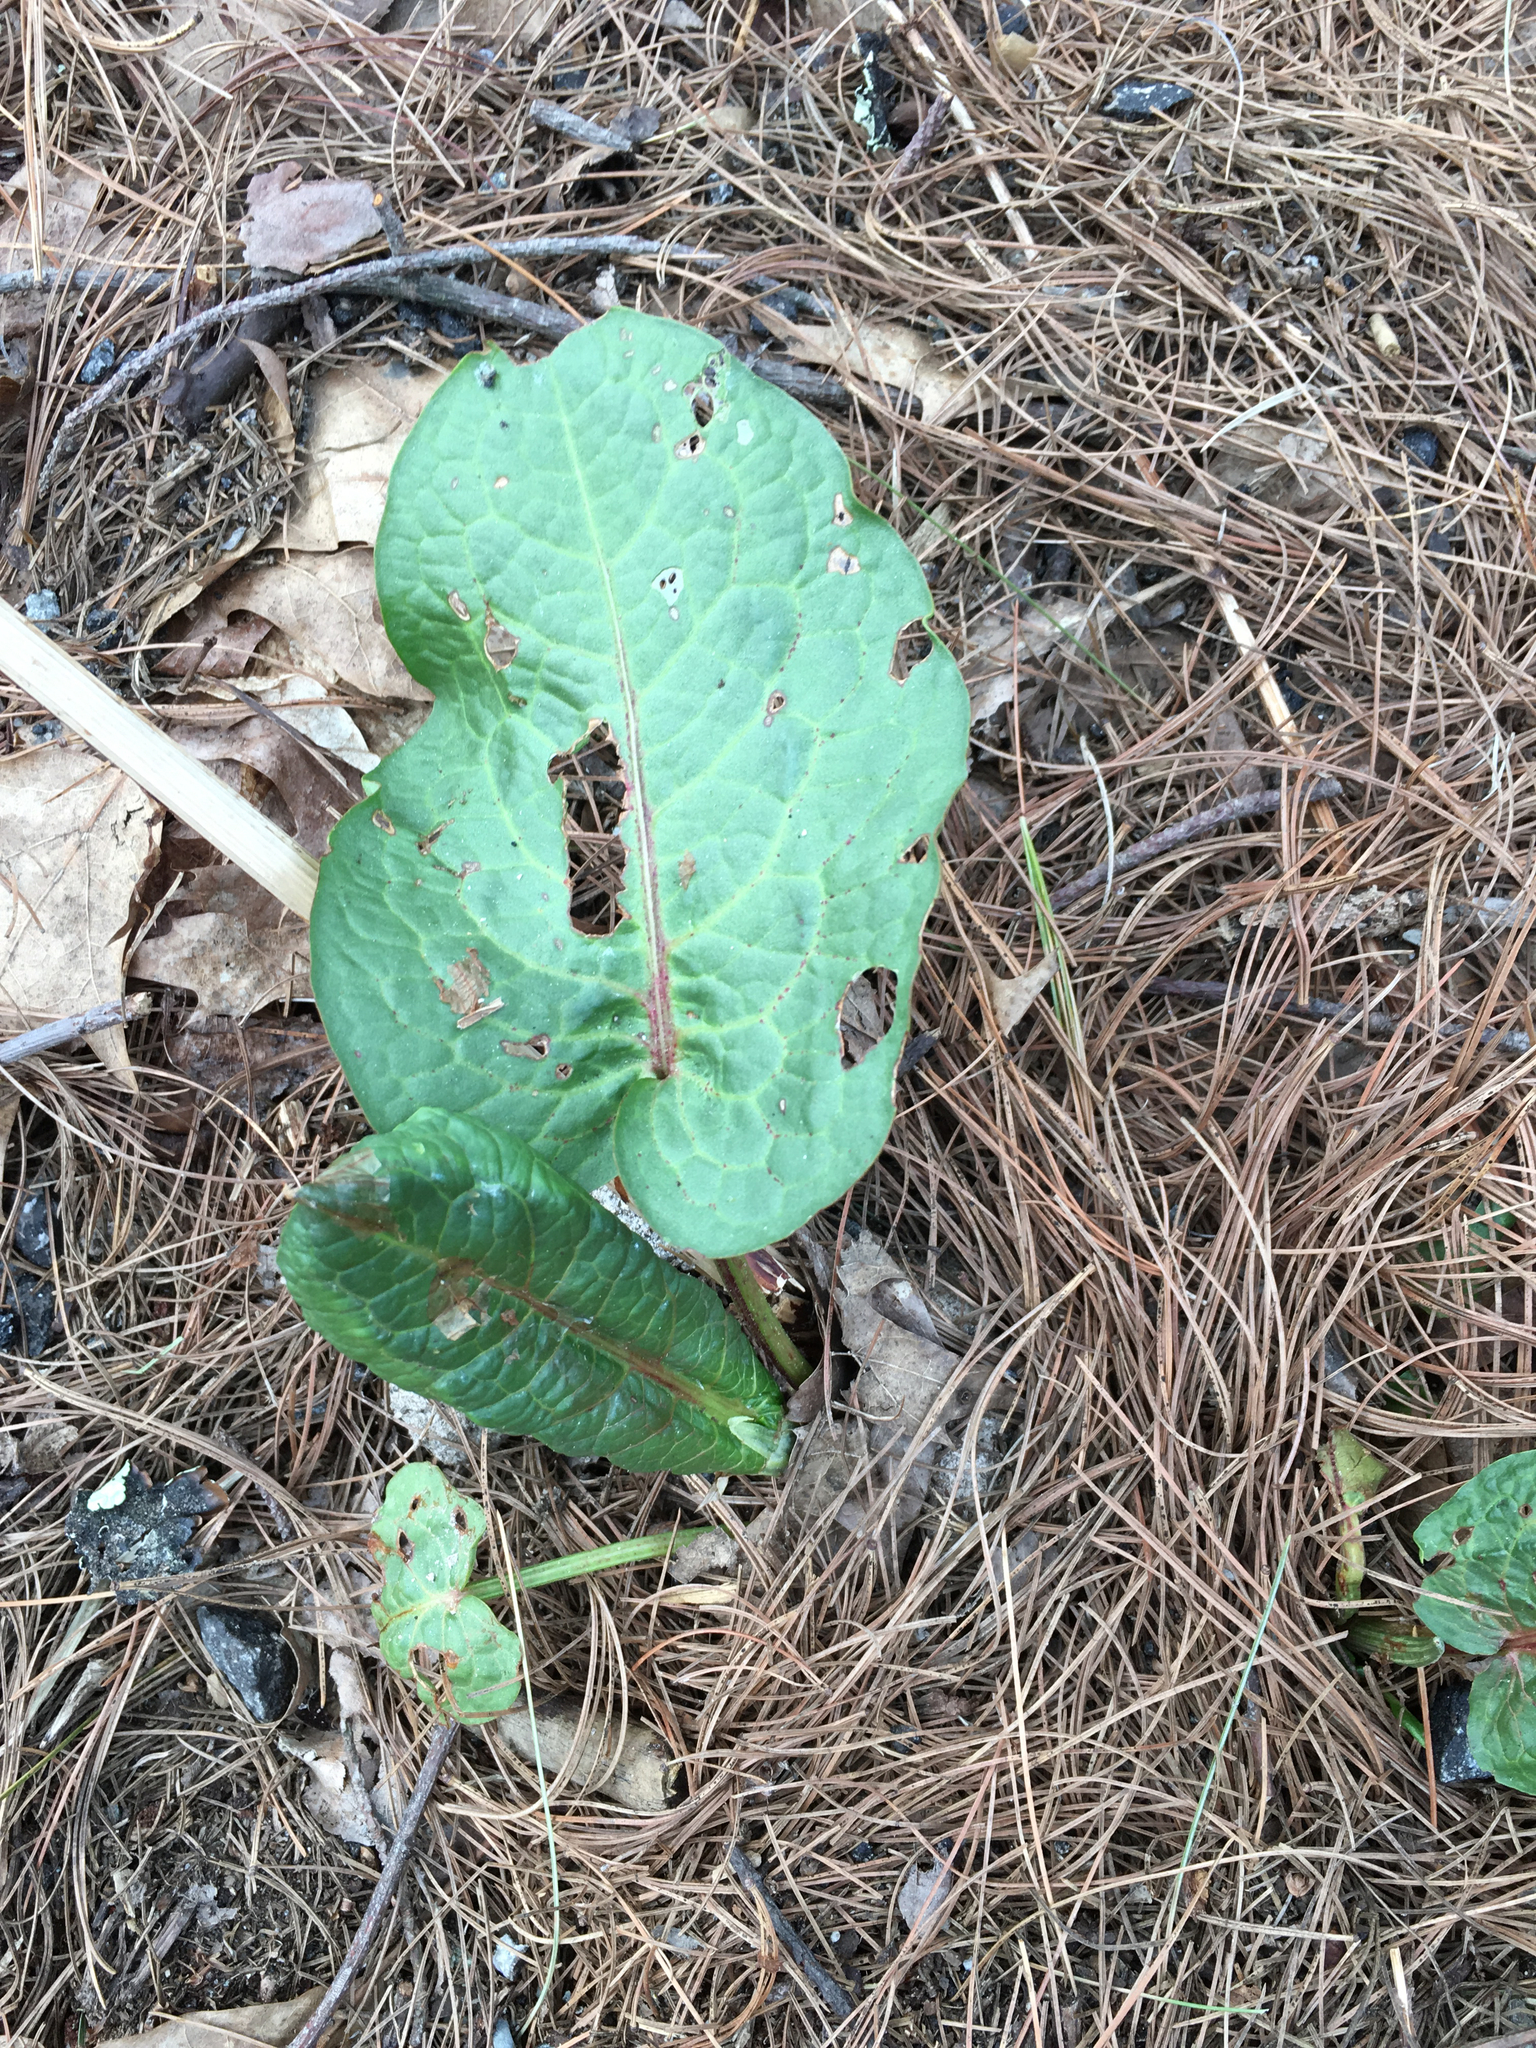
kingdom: Plantae
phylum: Tracheophyta
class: Magnoliopsida
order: Caryophyllales
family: Polygonaceae
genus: Rumex
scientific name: Rumex obtusifolius
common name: Bitter dock
